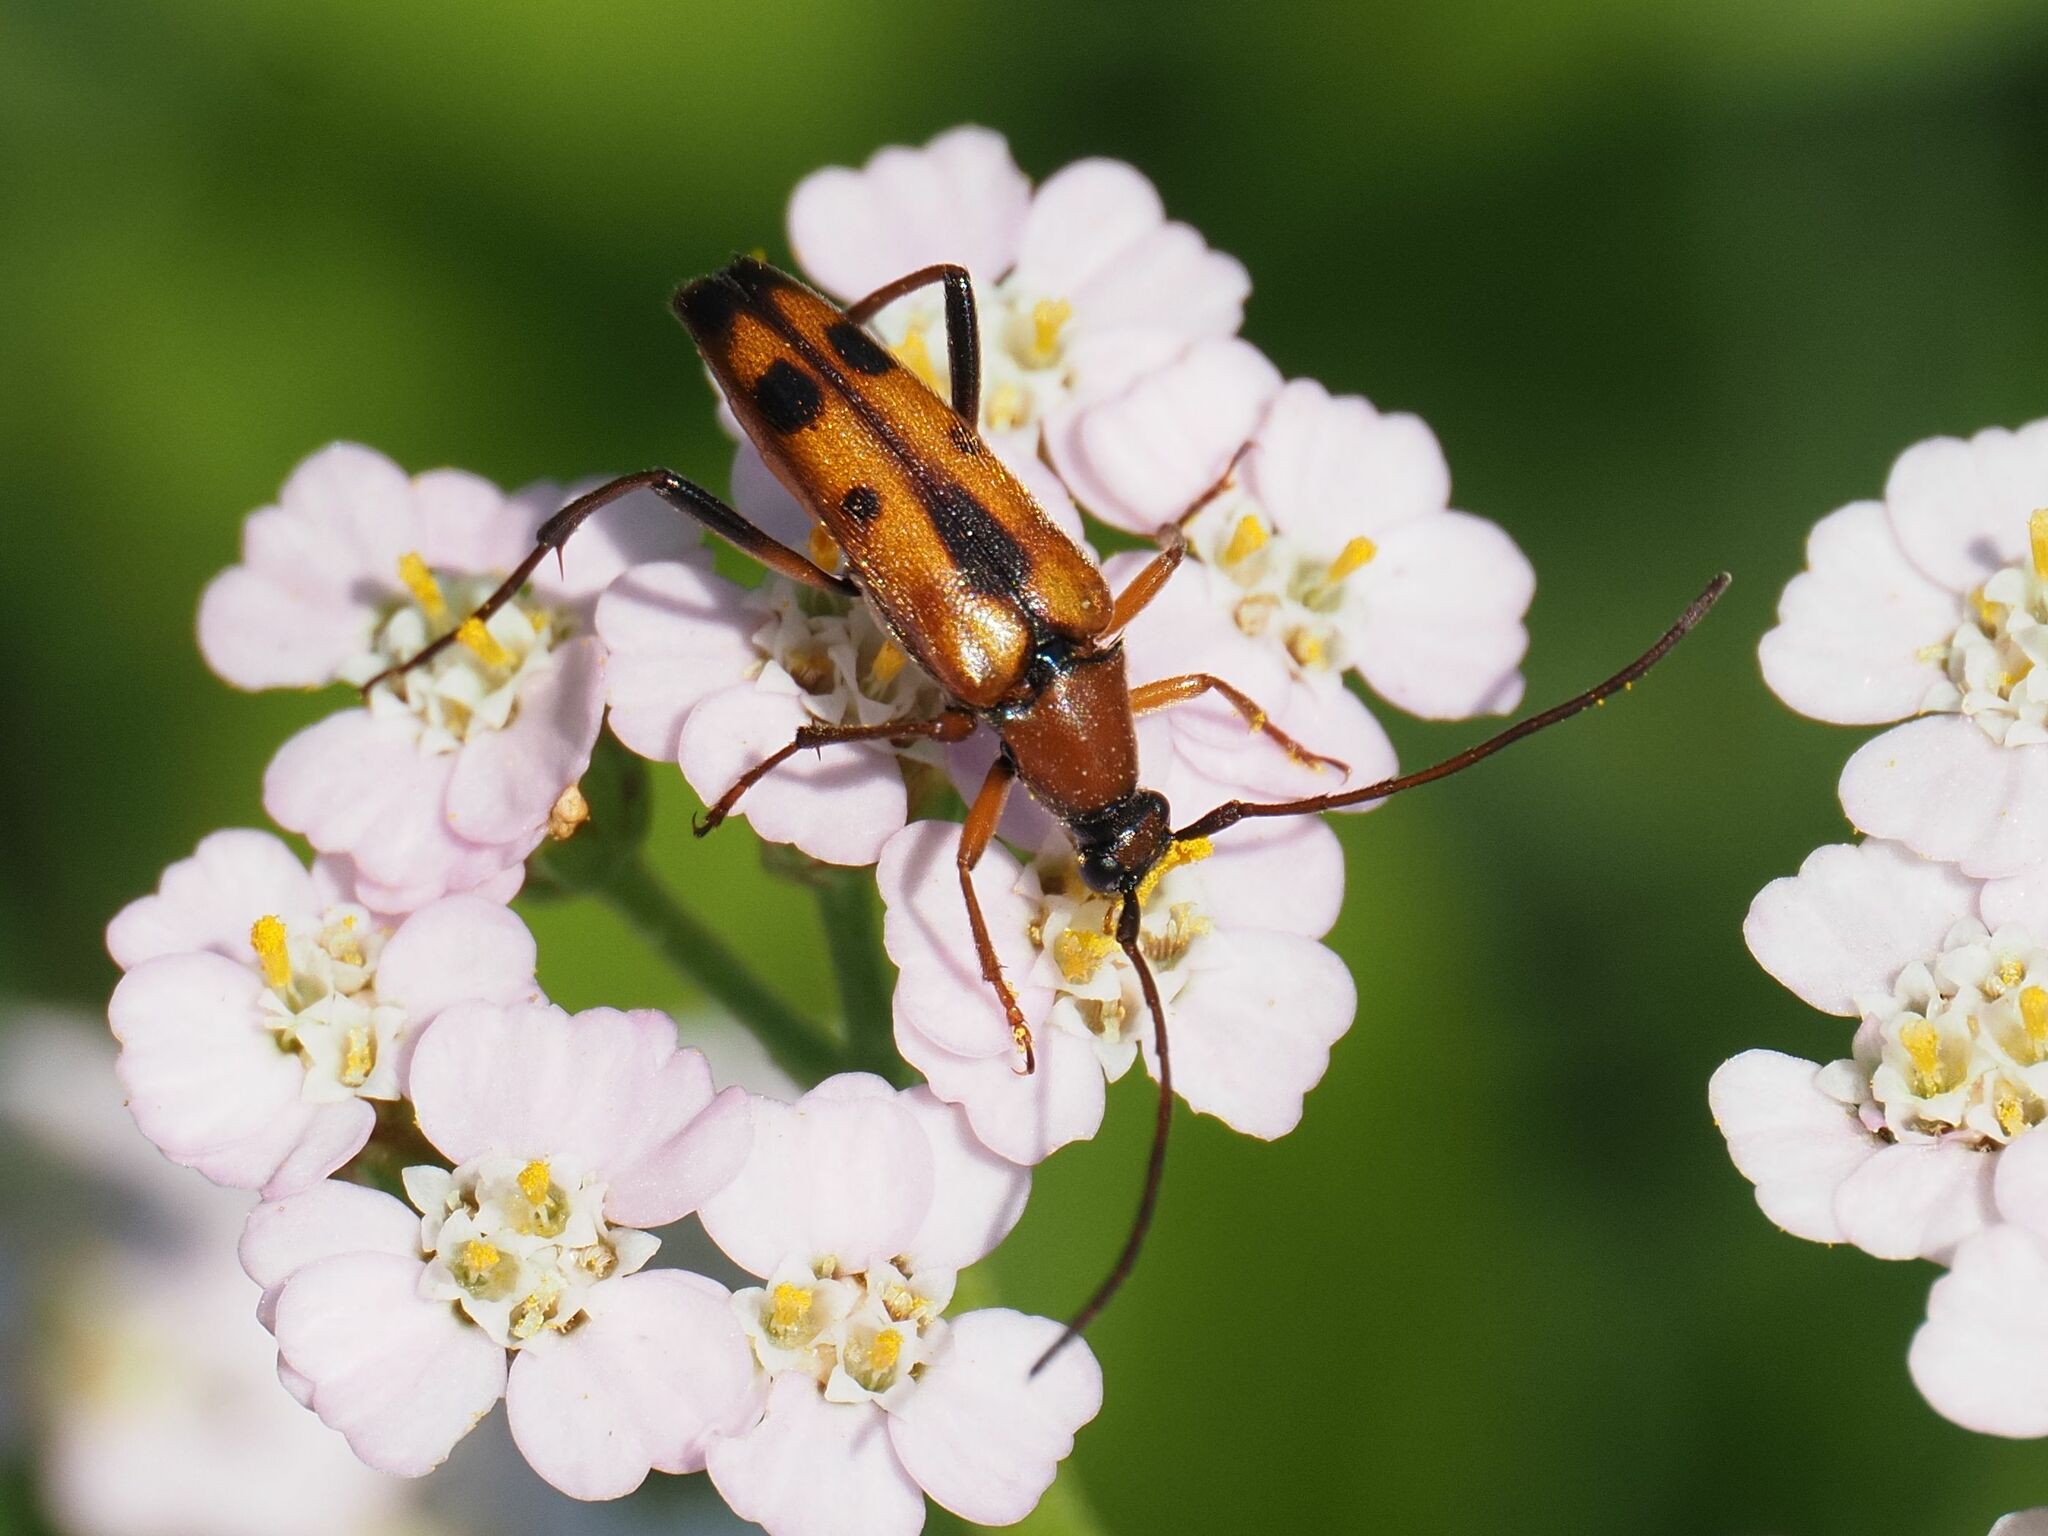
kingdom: Animalia
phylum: Arthropoda
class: Insecta
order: Coleoptera
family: Cerambycidae
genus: Stenurella
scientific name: Stenurella septempunctata
